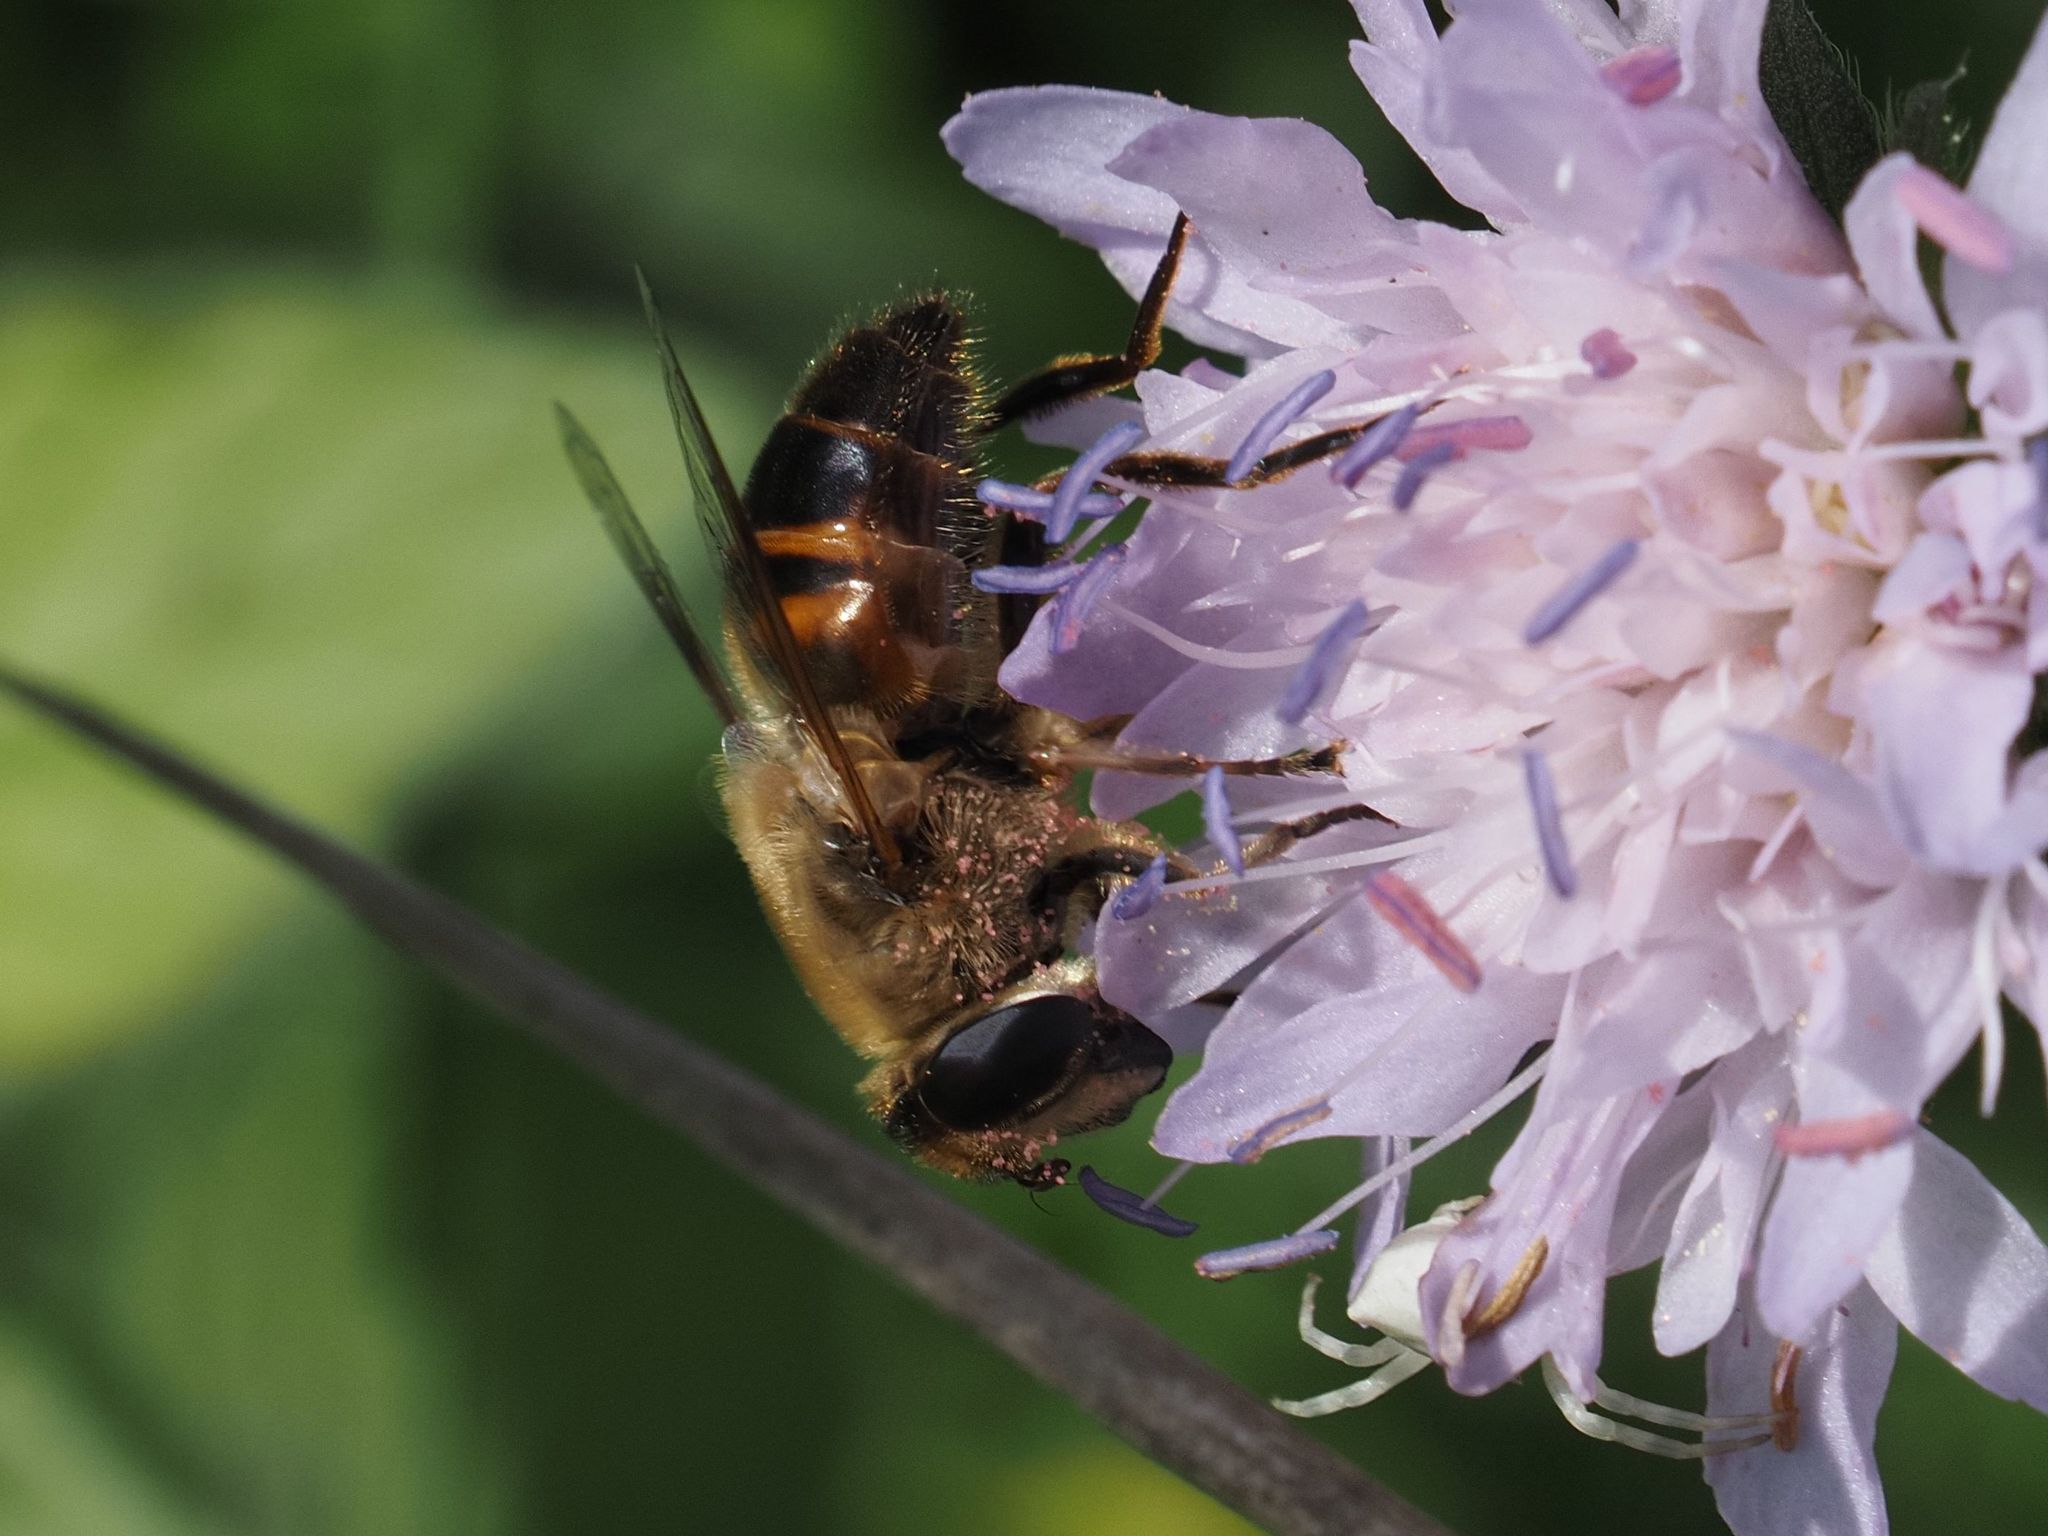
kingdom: Animalia
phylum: Arthropoda
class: Insecta
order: Diptera
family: Syrphidae
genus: Eristalis
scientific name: Eristalis tenax
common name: Drone fly
